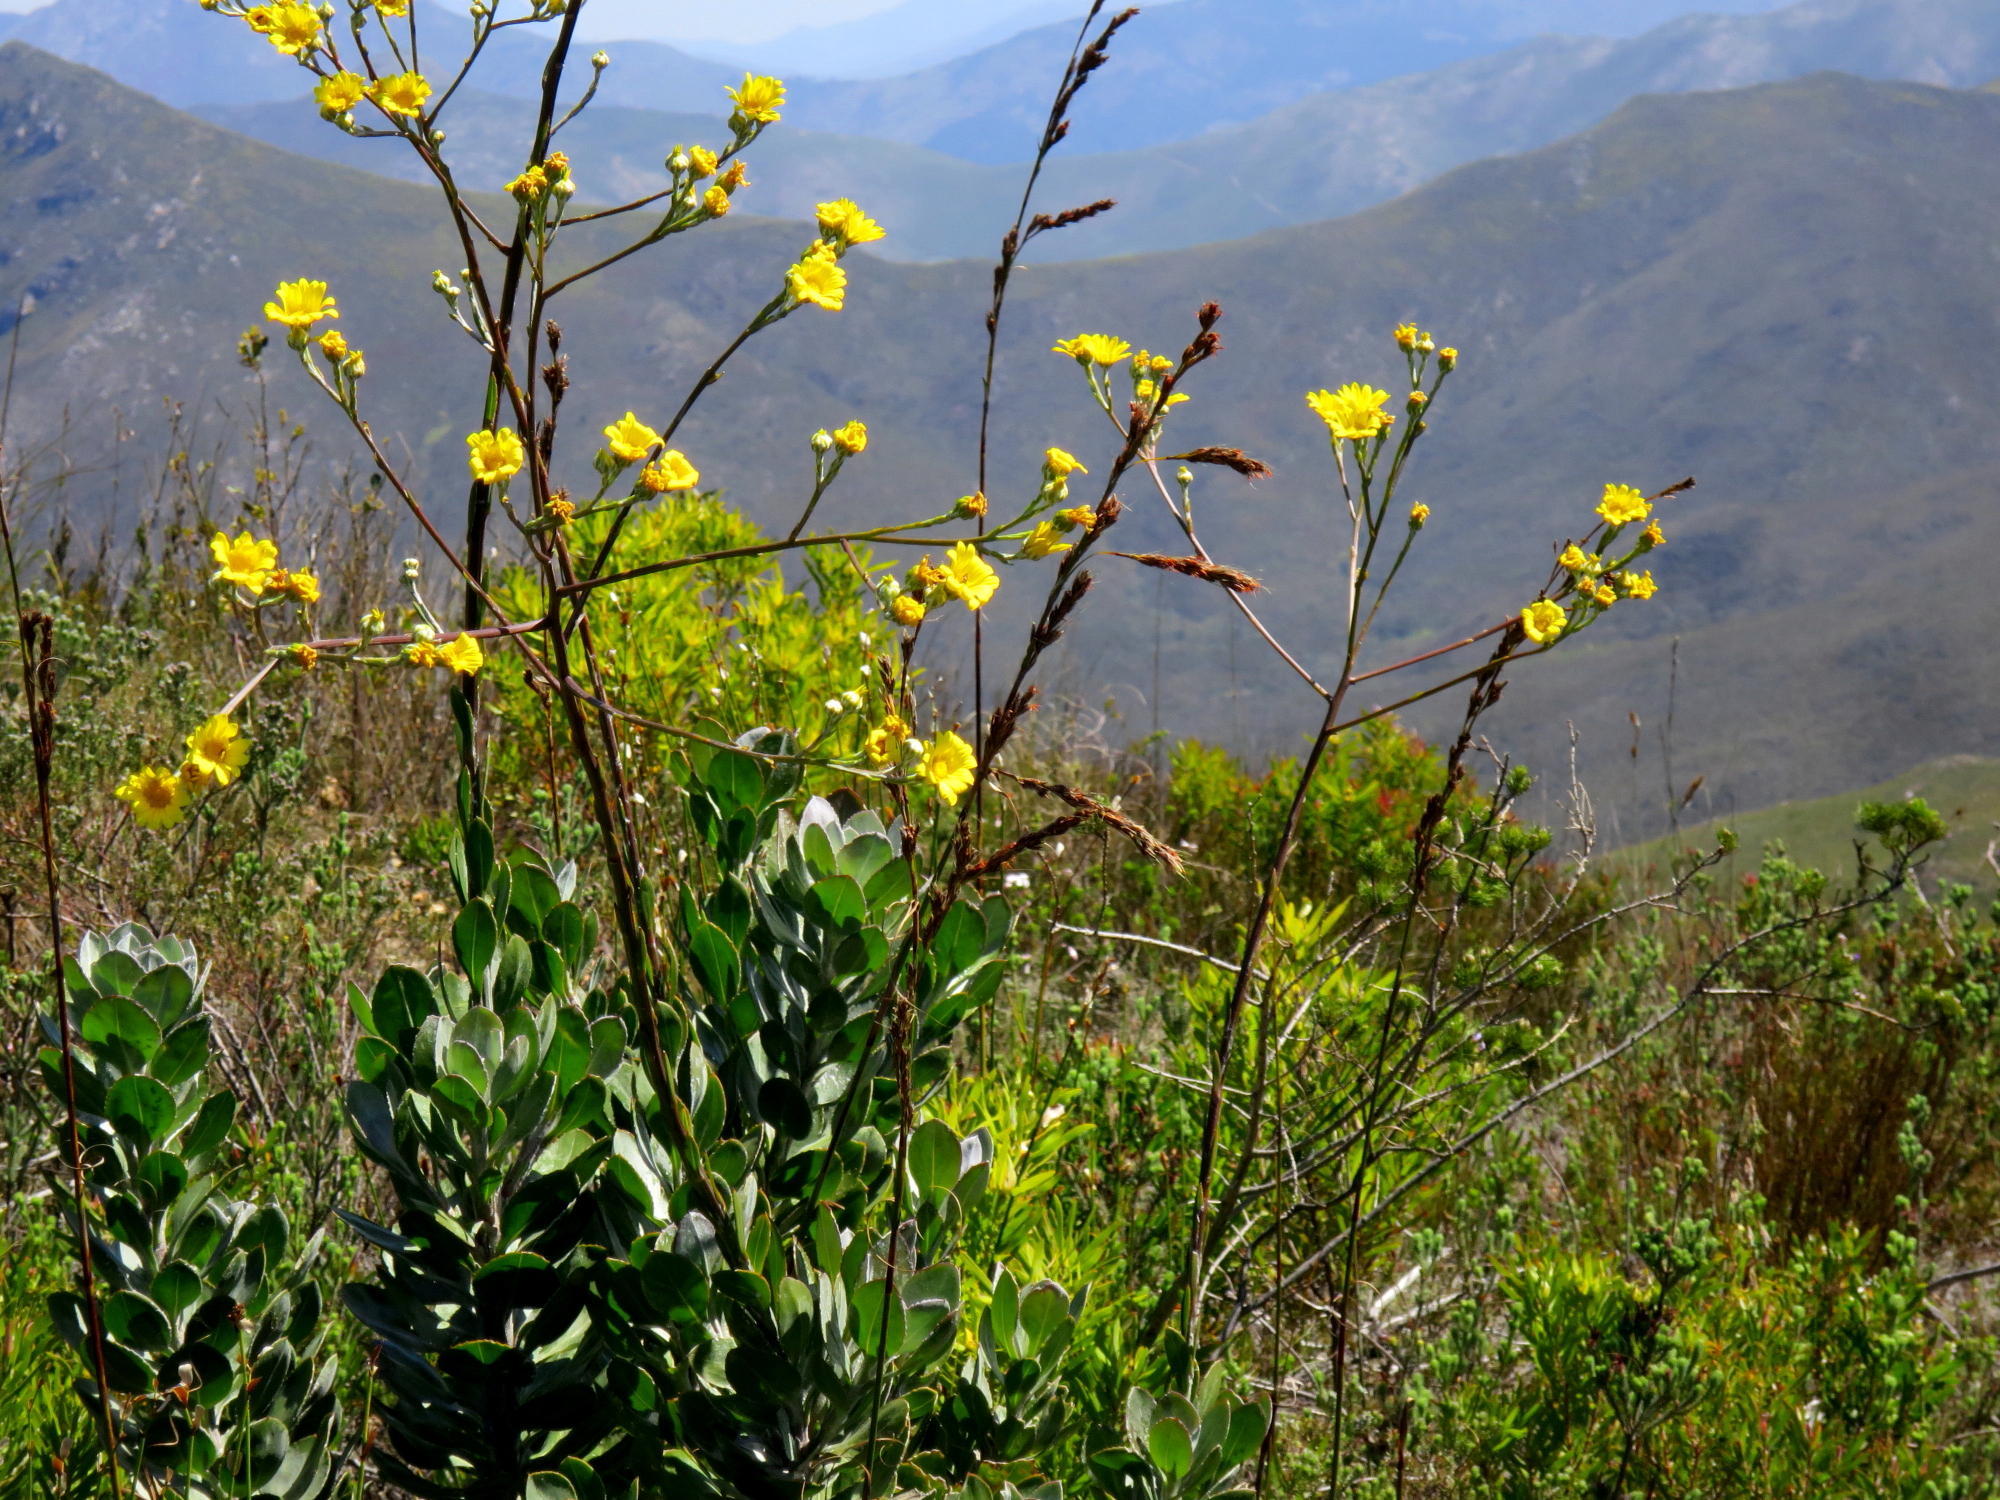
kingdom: Plantae
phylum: Tracheophyta
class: Magnoliopsida
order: Asterales
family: Asteraceae
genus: Osteospermum
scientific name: Osteospermum junceum
